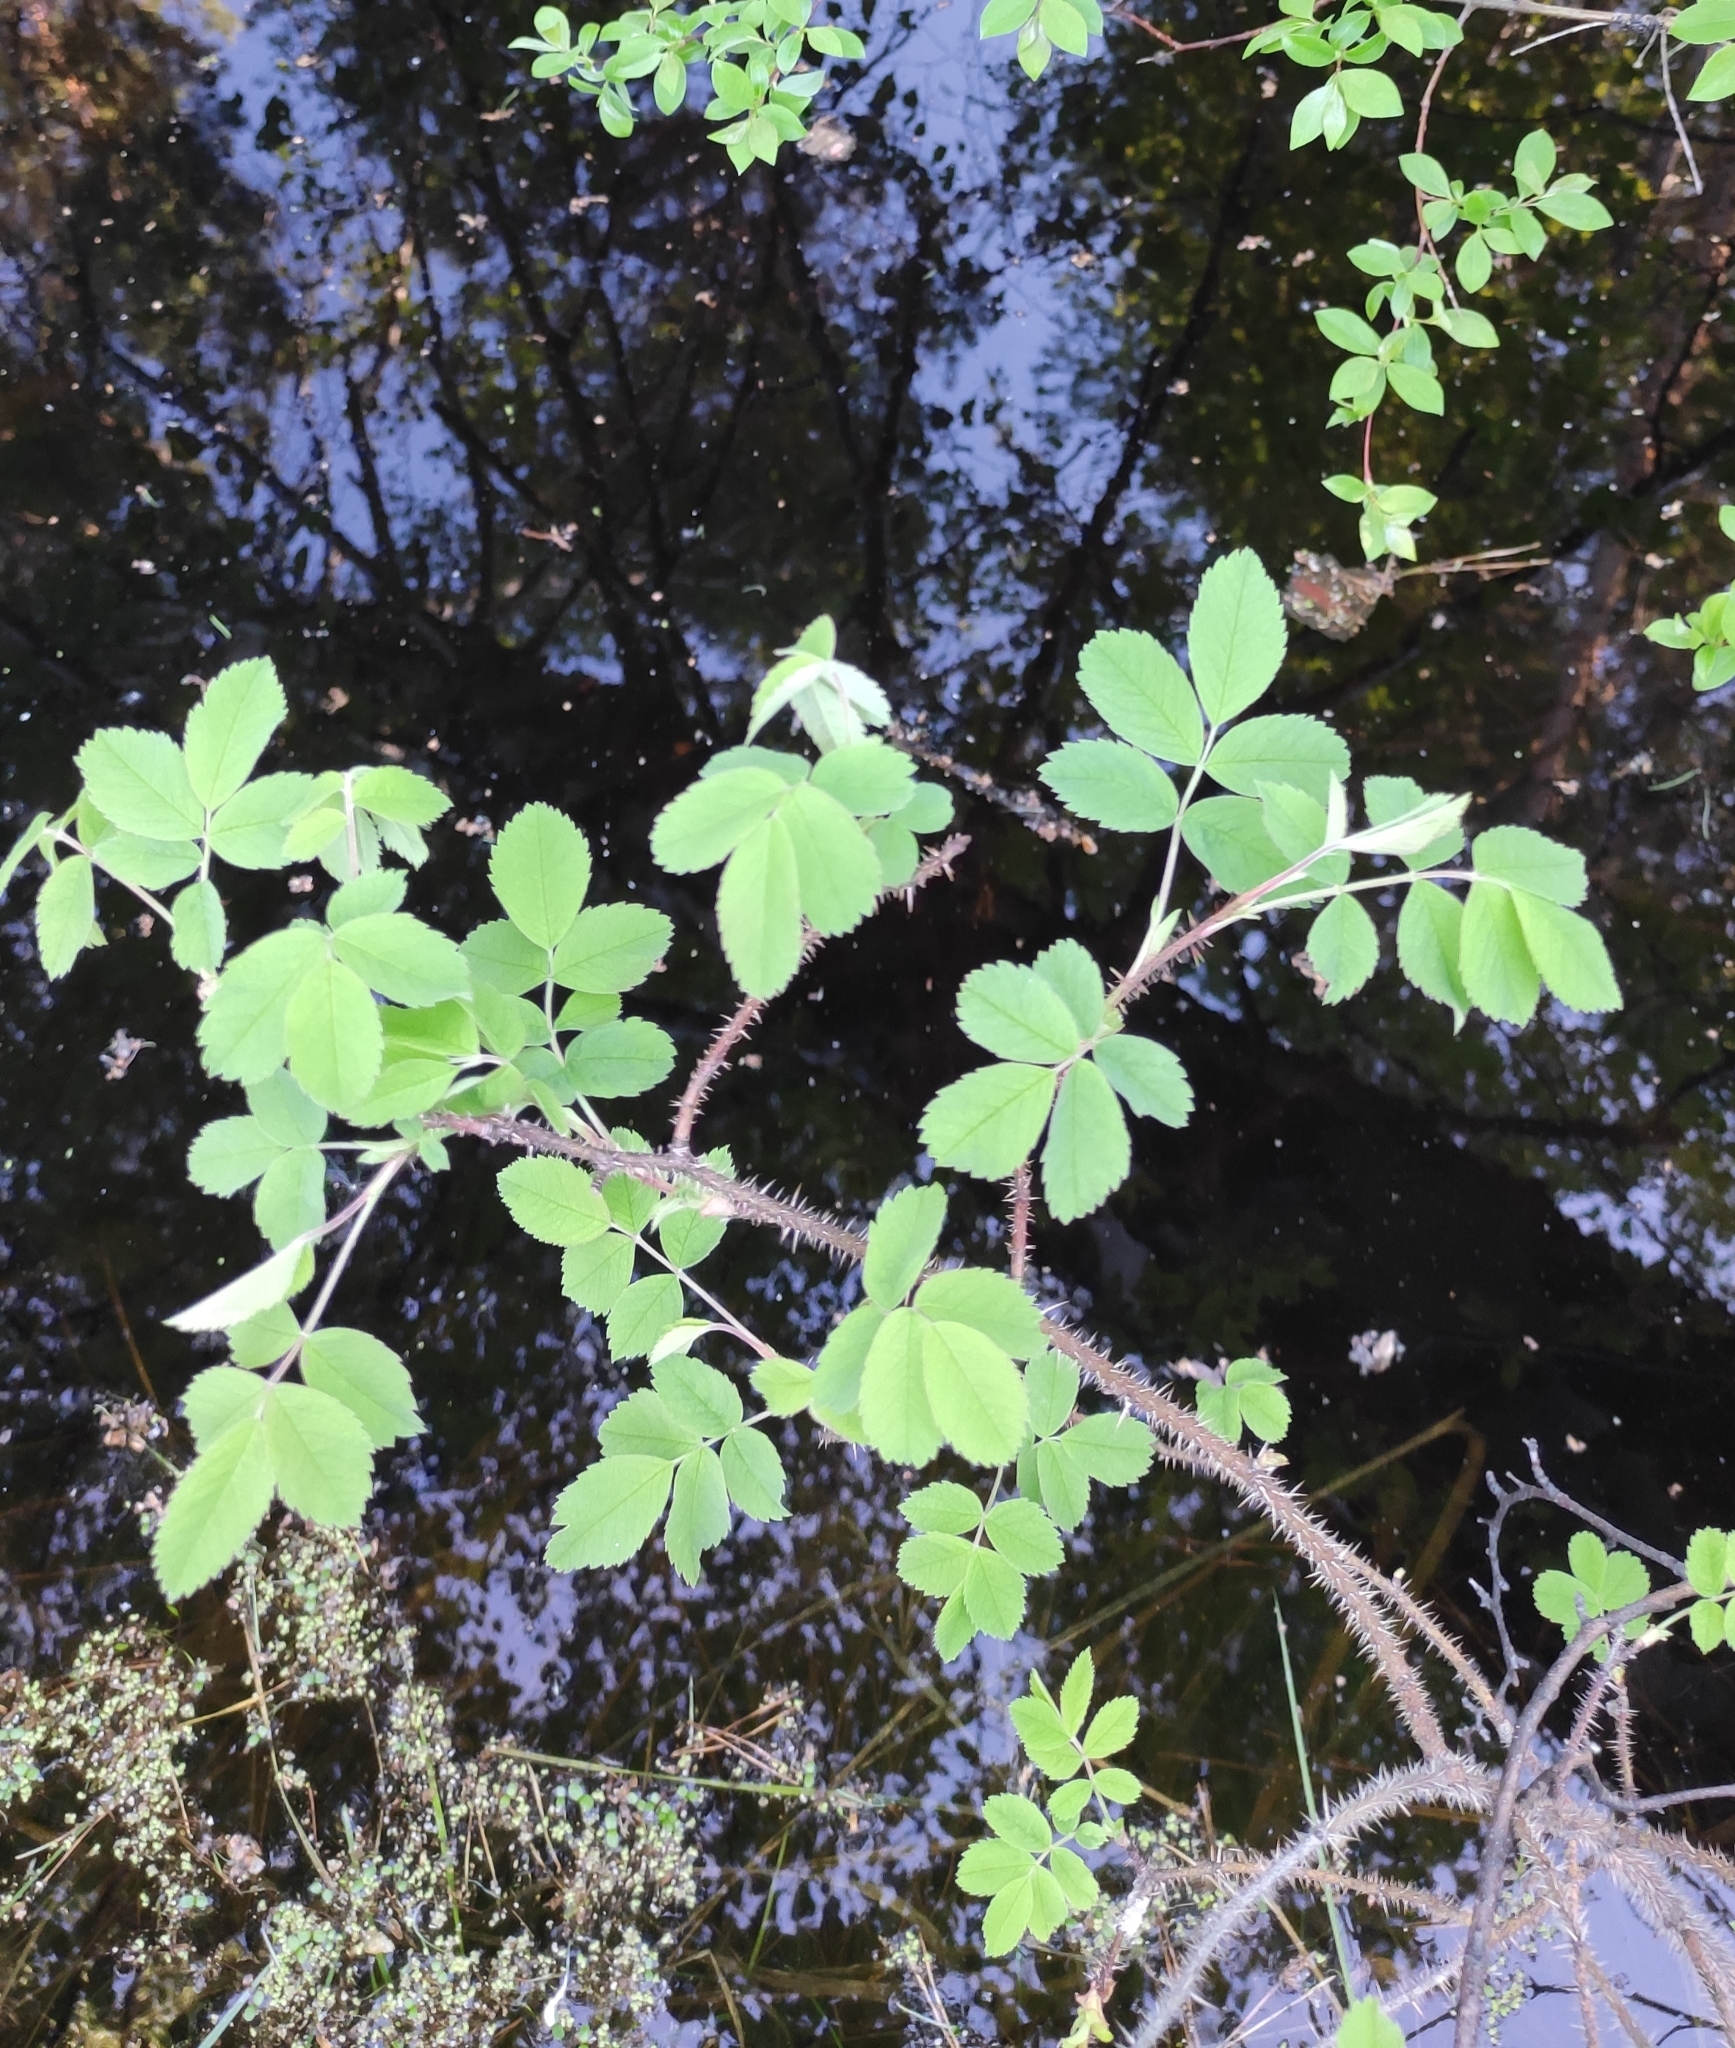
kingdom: Plantae
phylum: Tracheophyta
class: Magnoliopsida
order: Rosales
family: Rosaceae
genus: Rosa
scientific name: Rosa acicularis
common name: Prickly rose
